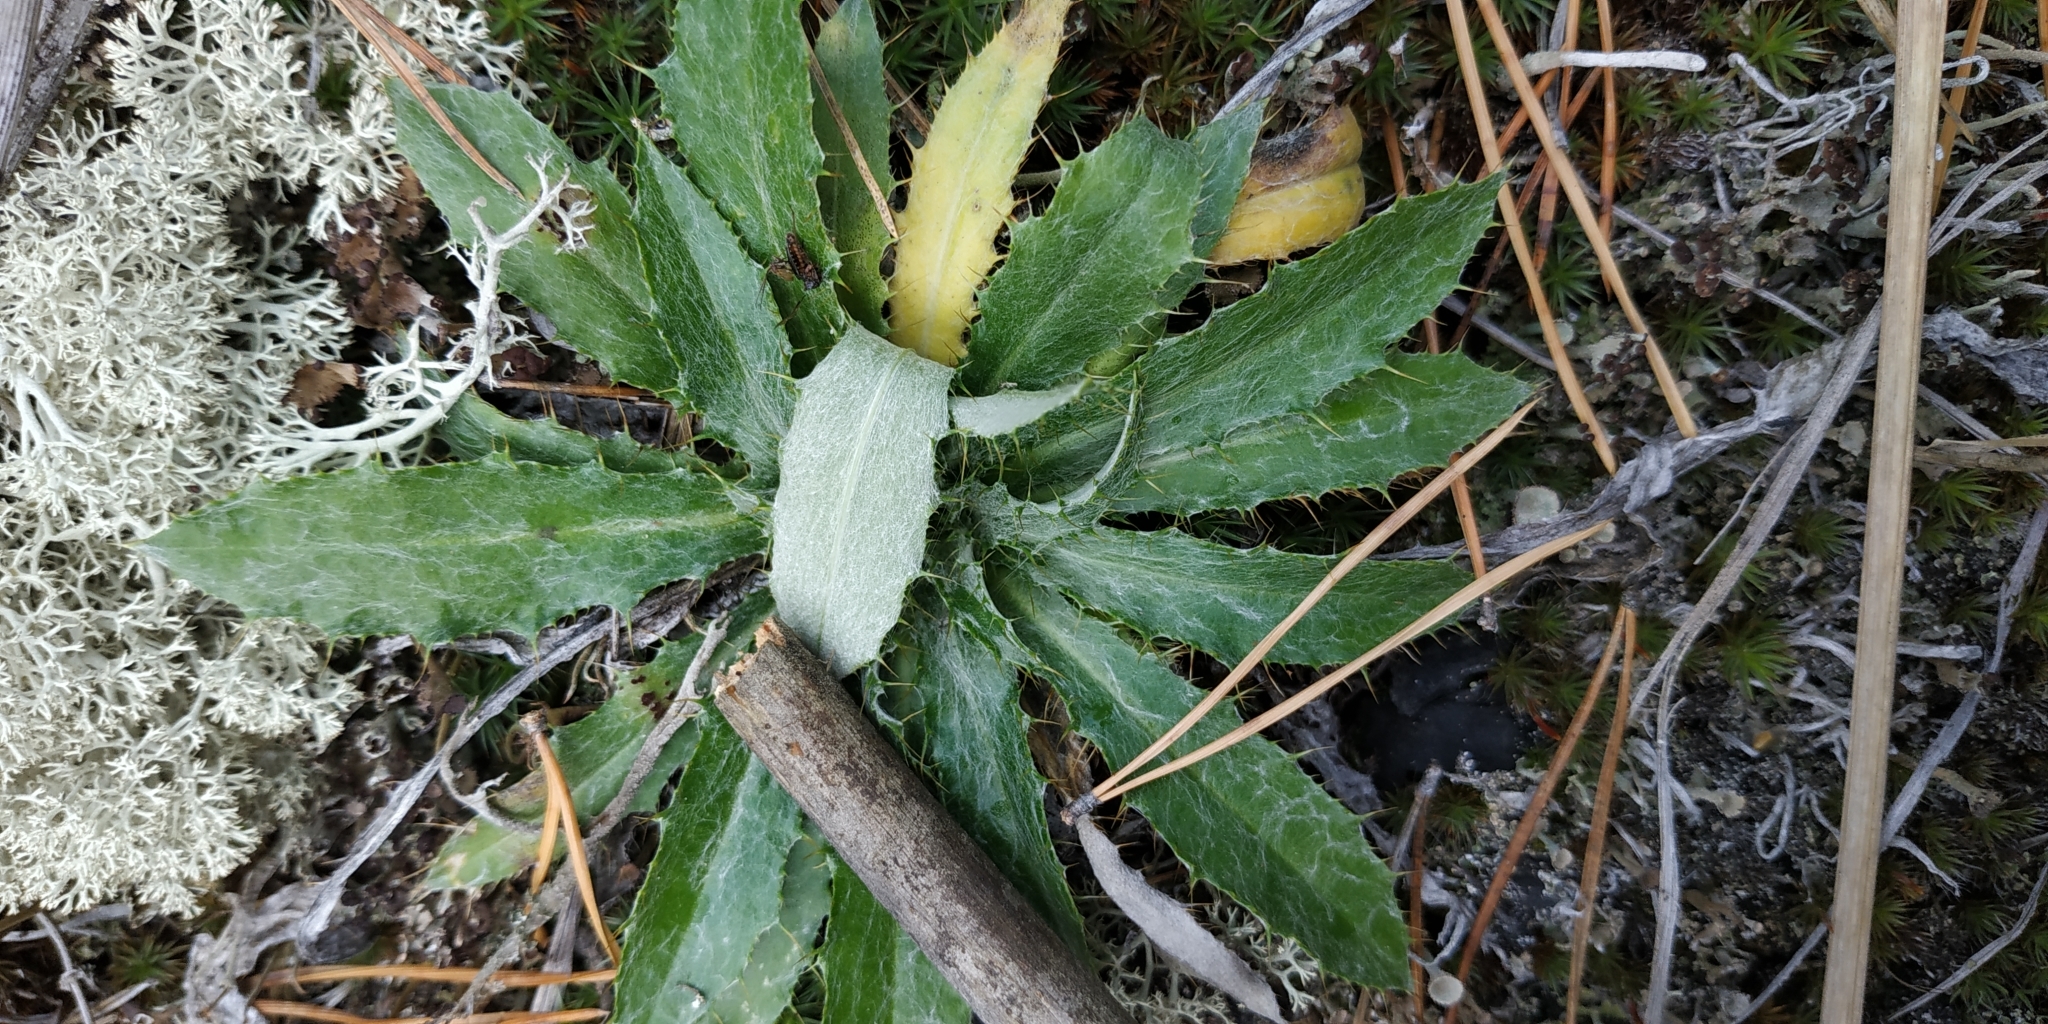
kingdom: Plantae
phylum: Tracheophyta
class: Magnoliopsida
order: Asterales
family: Asteraceae
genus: Carlina
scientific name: Carlina biebersteinii
